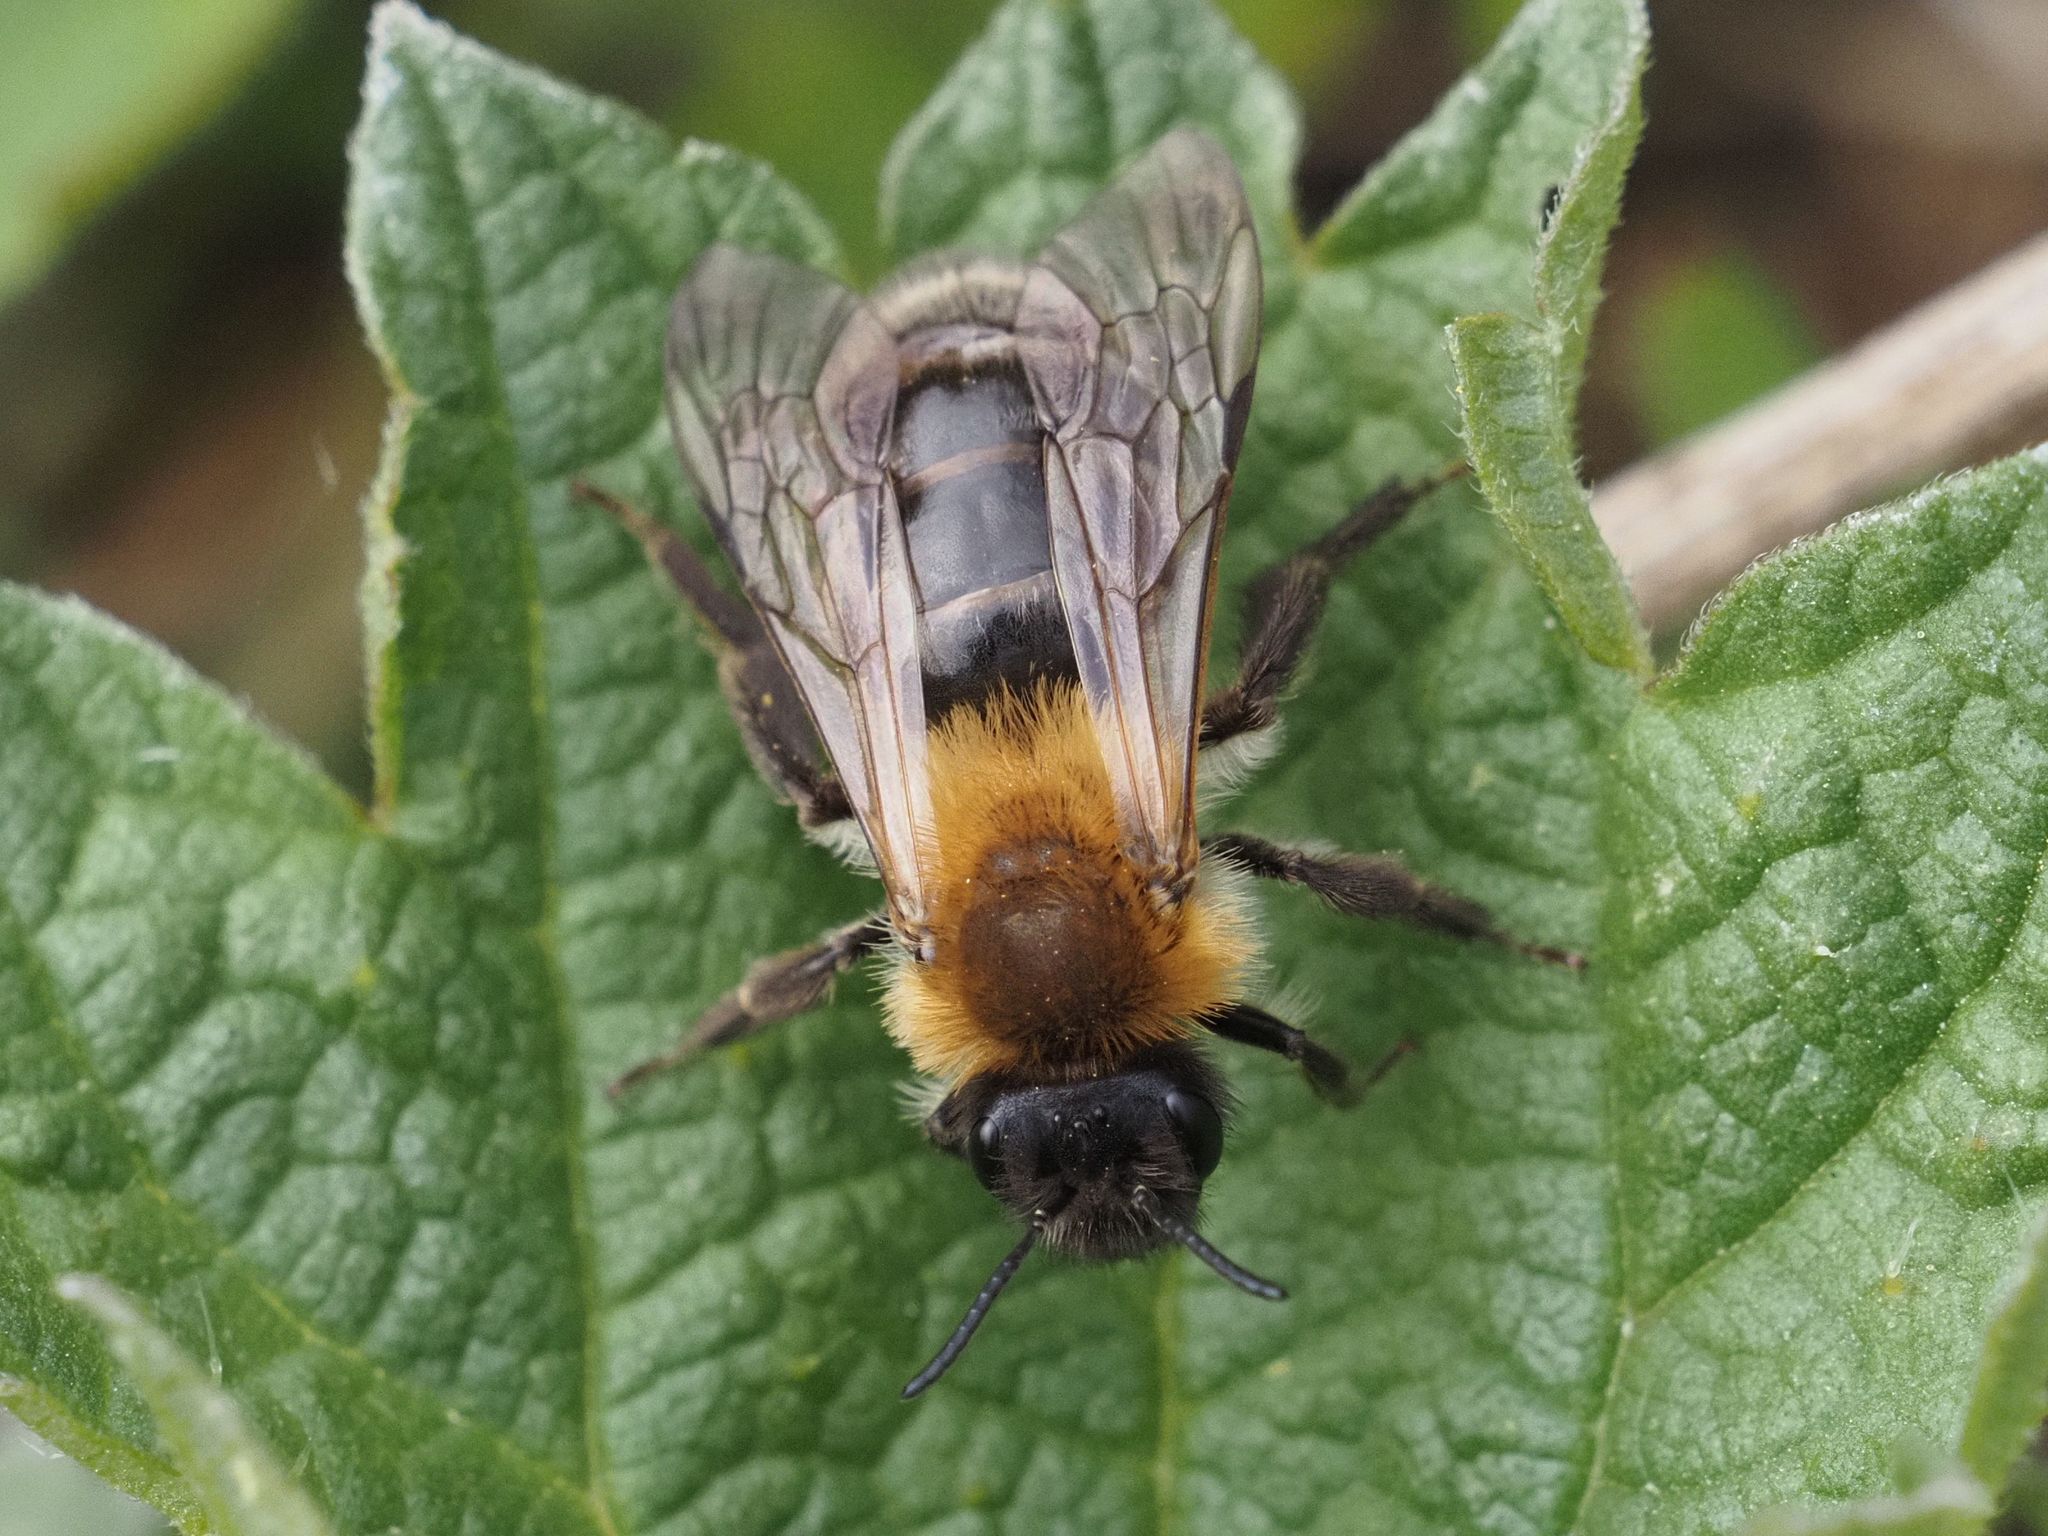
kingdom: Animalia
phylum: Arthropoda
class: Insecta
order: Hymenoptera
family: Andrenidae
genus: Andrena
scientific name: Andrena nitida
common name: Grey-patched mining bee
